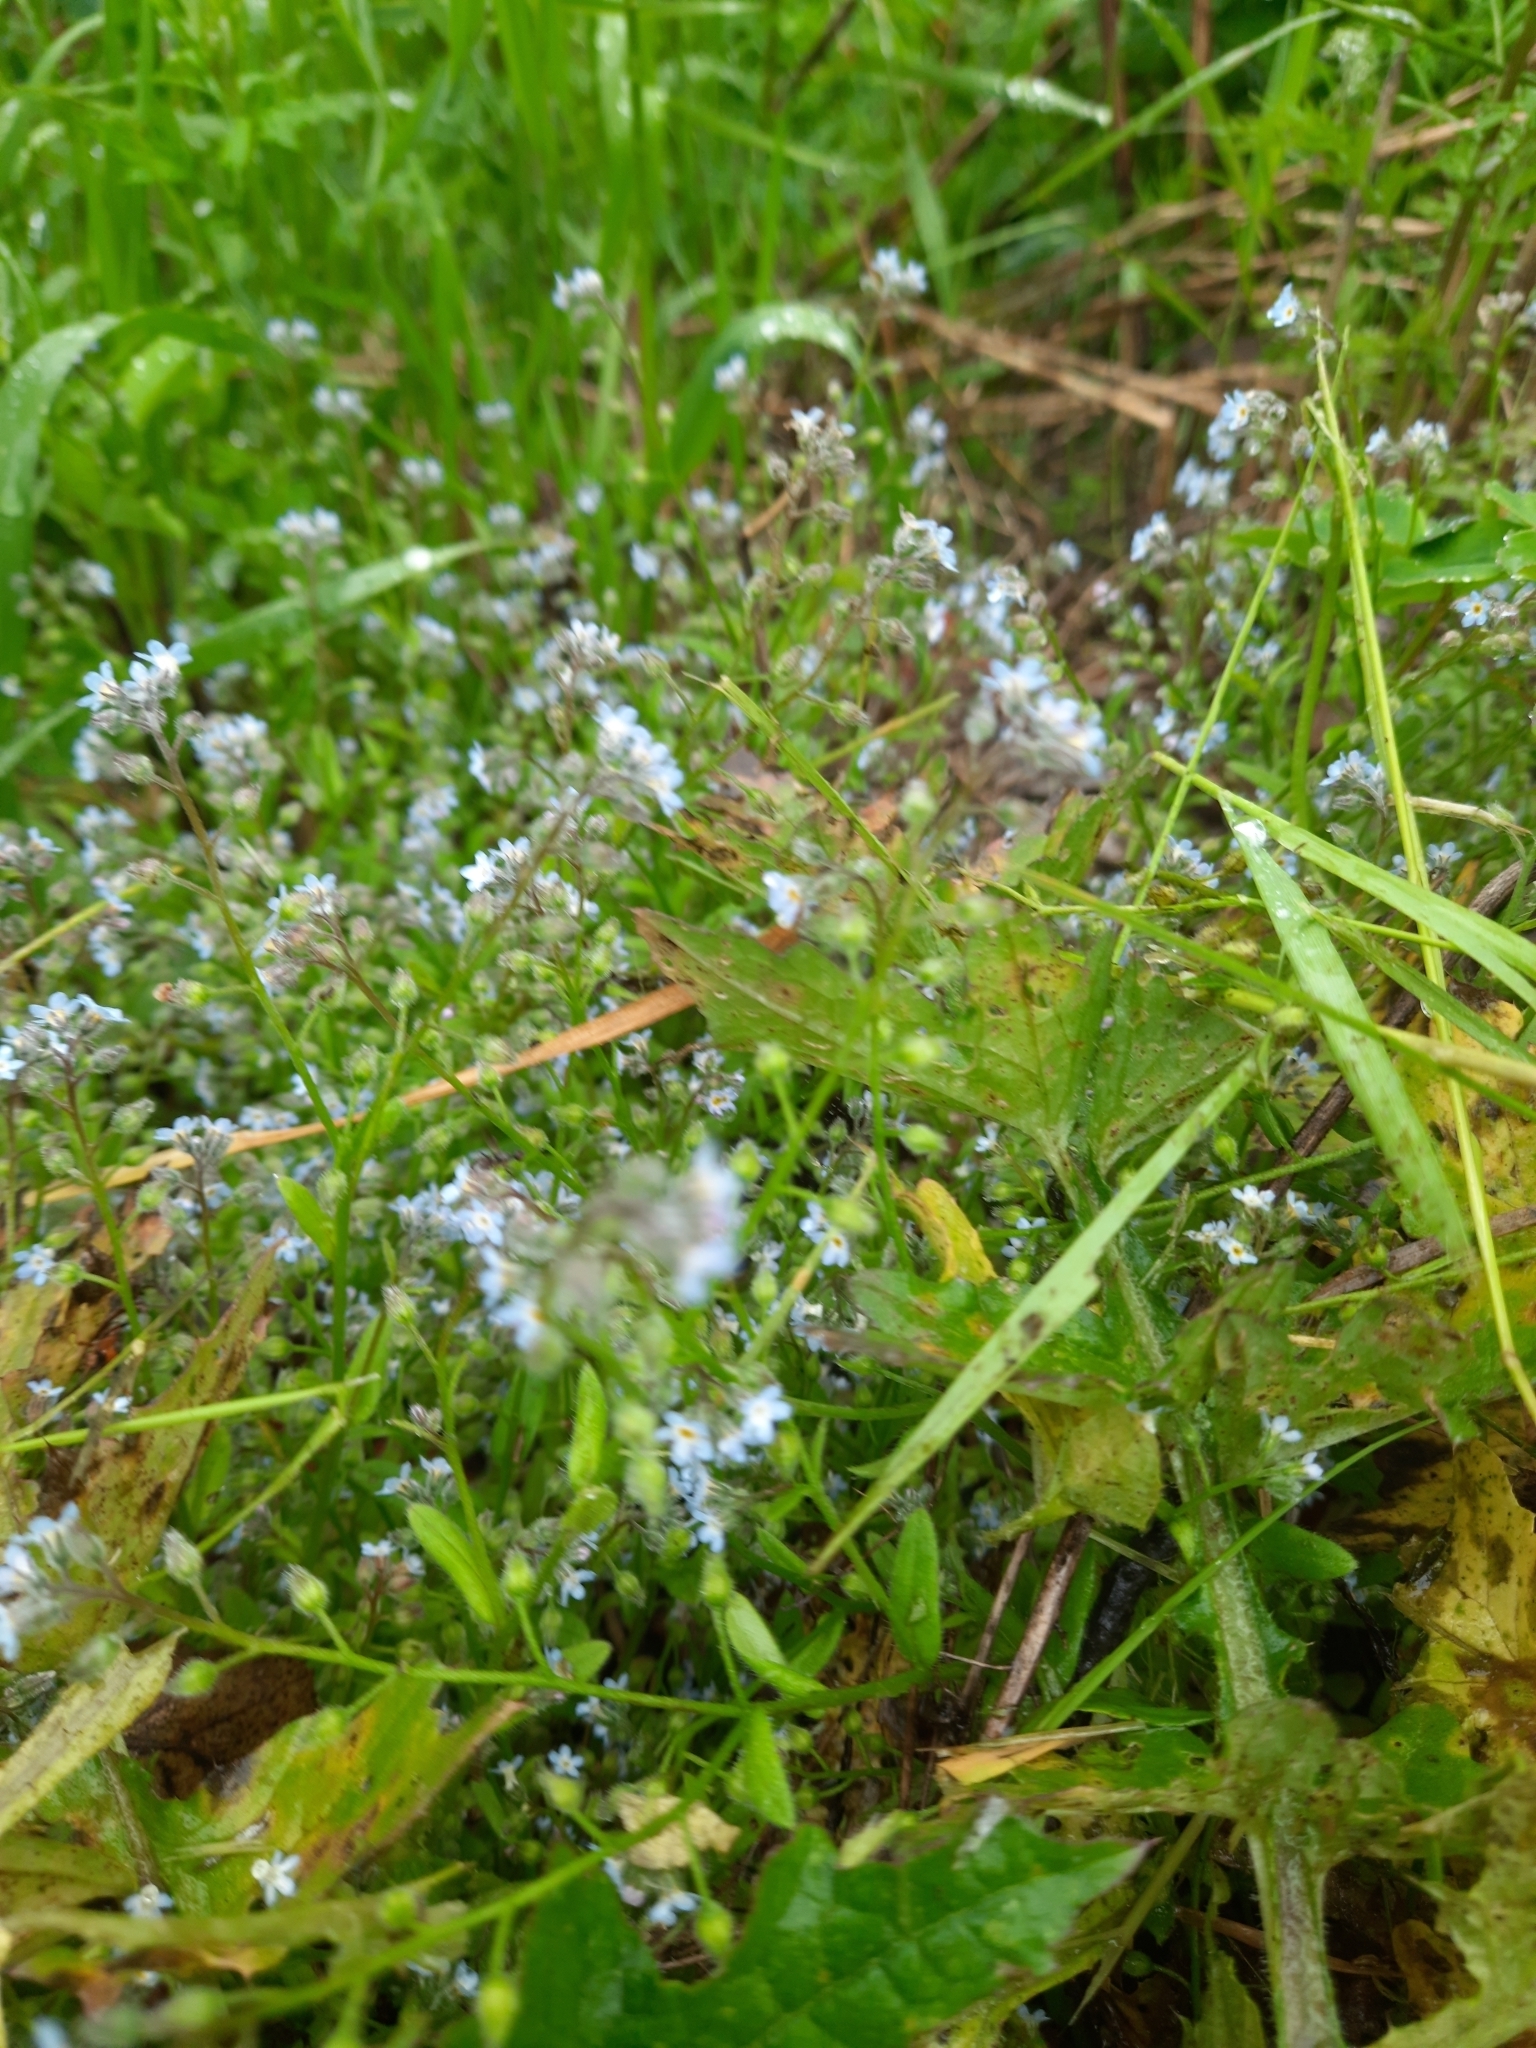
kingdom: Plantae
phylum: Tracheophyta
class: Magnoliopsida
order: Boraginales
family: Boraginaceae
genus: Myosotis
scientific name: Myosotis arvensis
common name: Field forget-me-not
